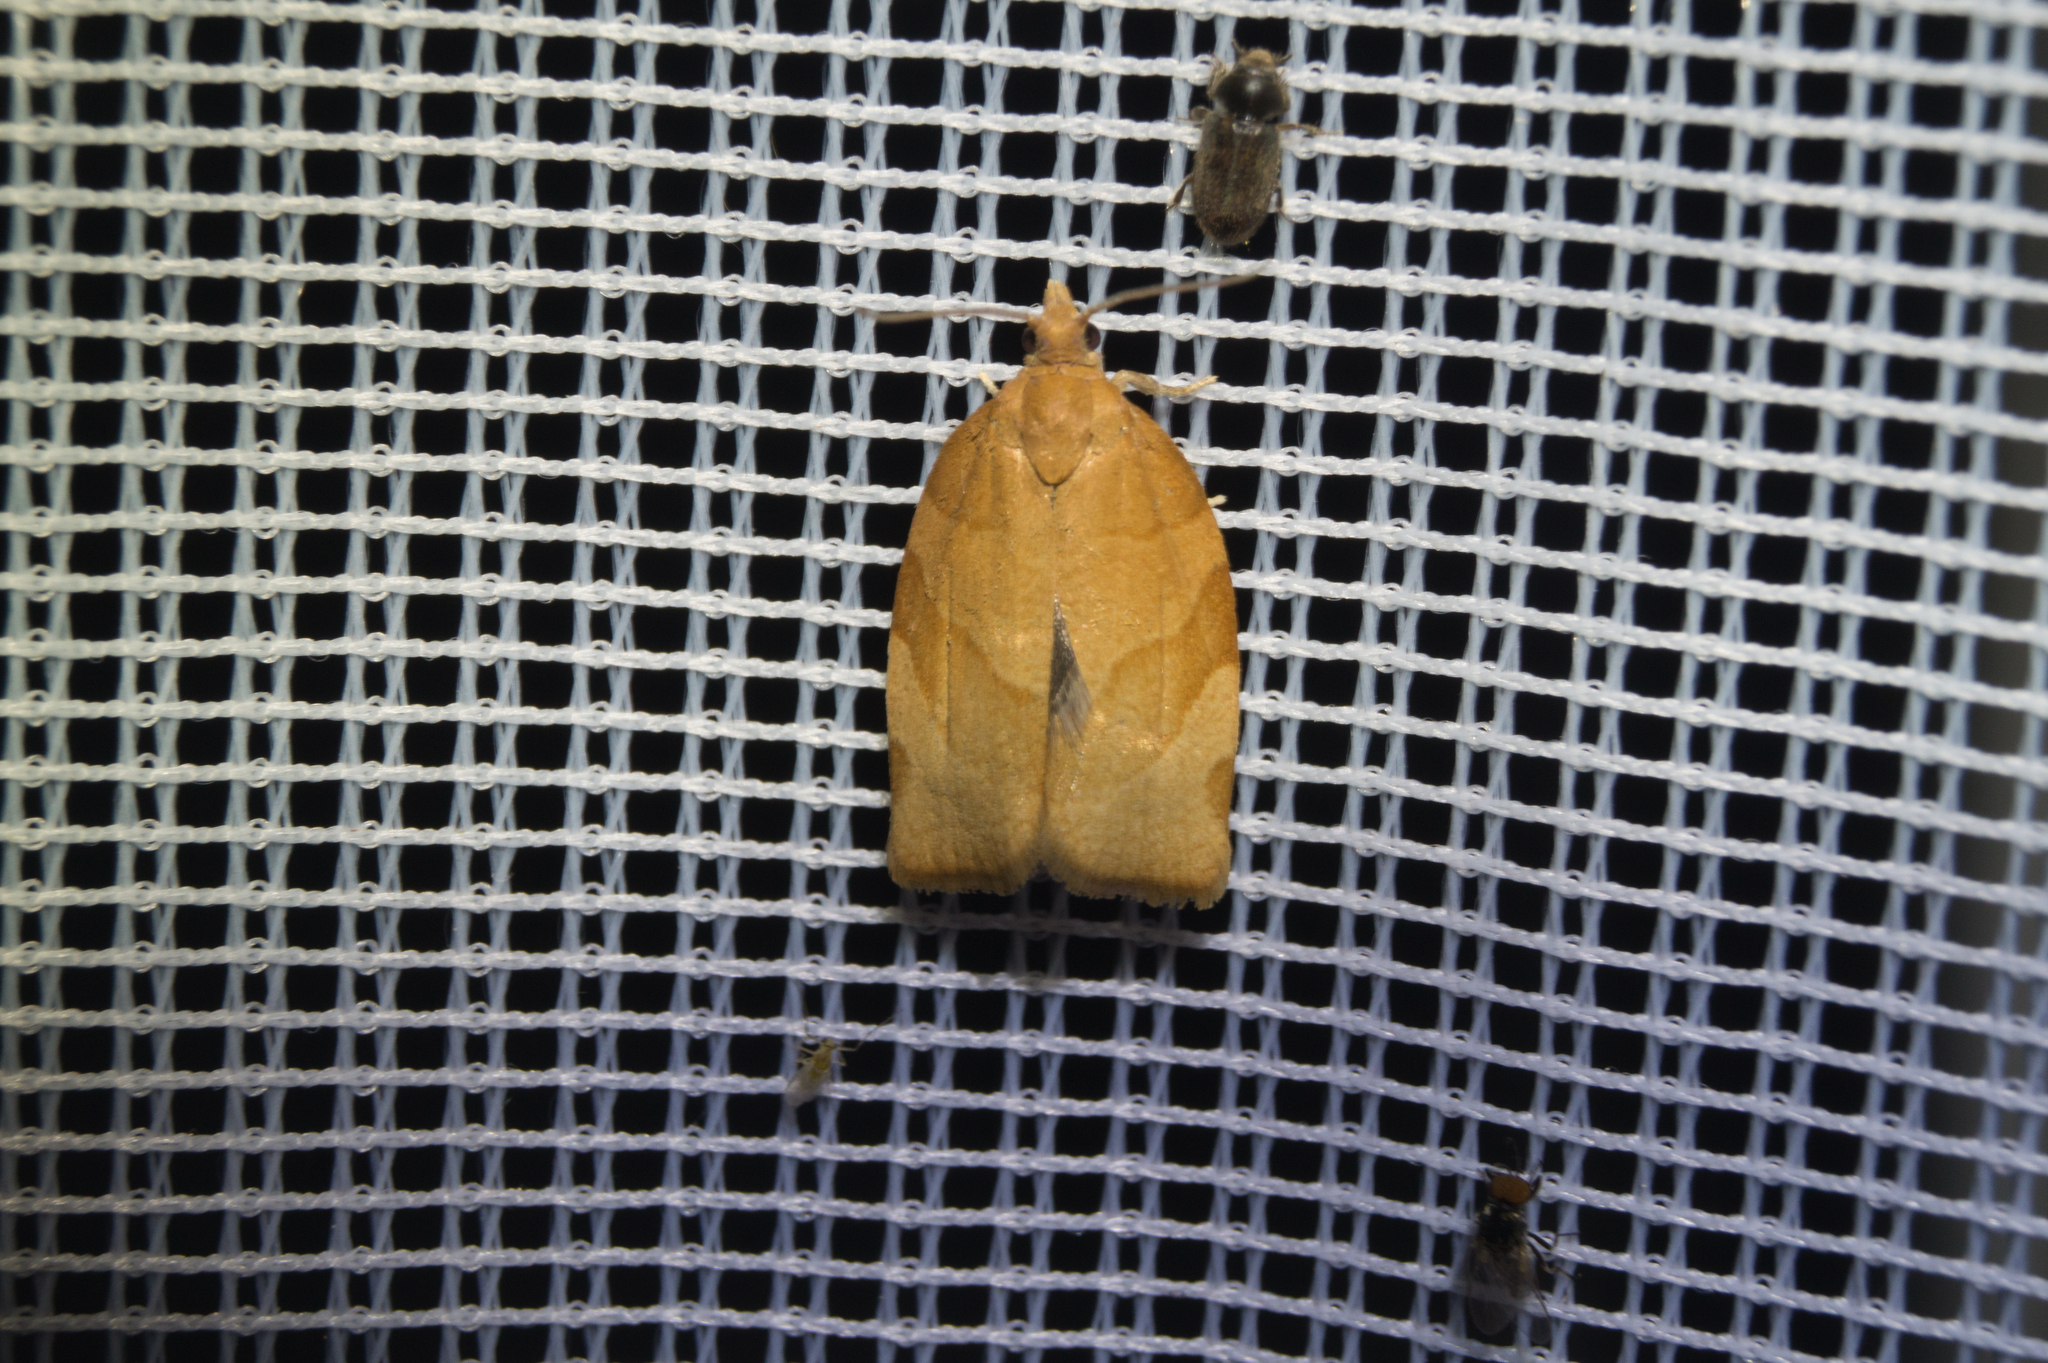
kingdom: Animalia
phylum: Arthropoda
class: Insecta
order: Lepidoptera
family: Tortricidae
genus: Pandemis
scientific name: Pandemis cerasana
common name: Barred fruit-tree tortrix
